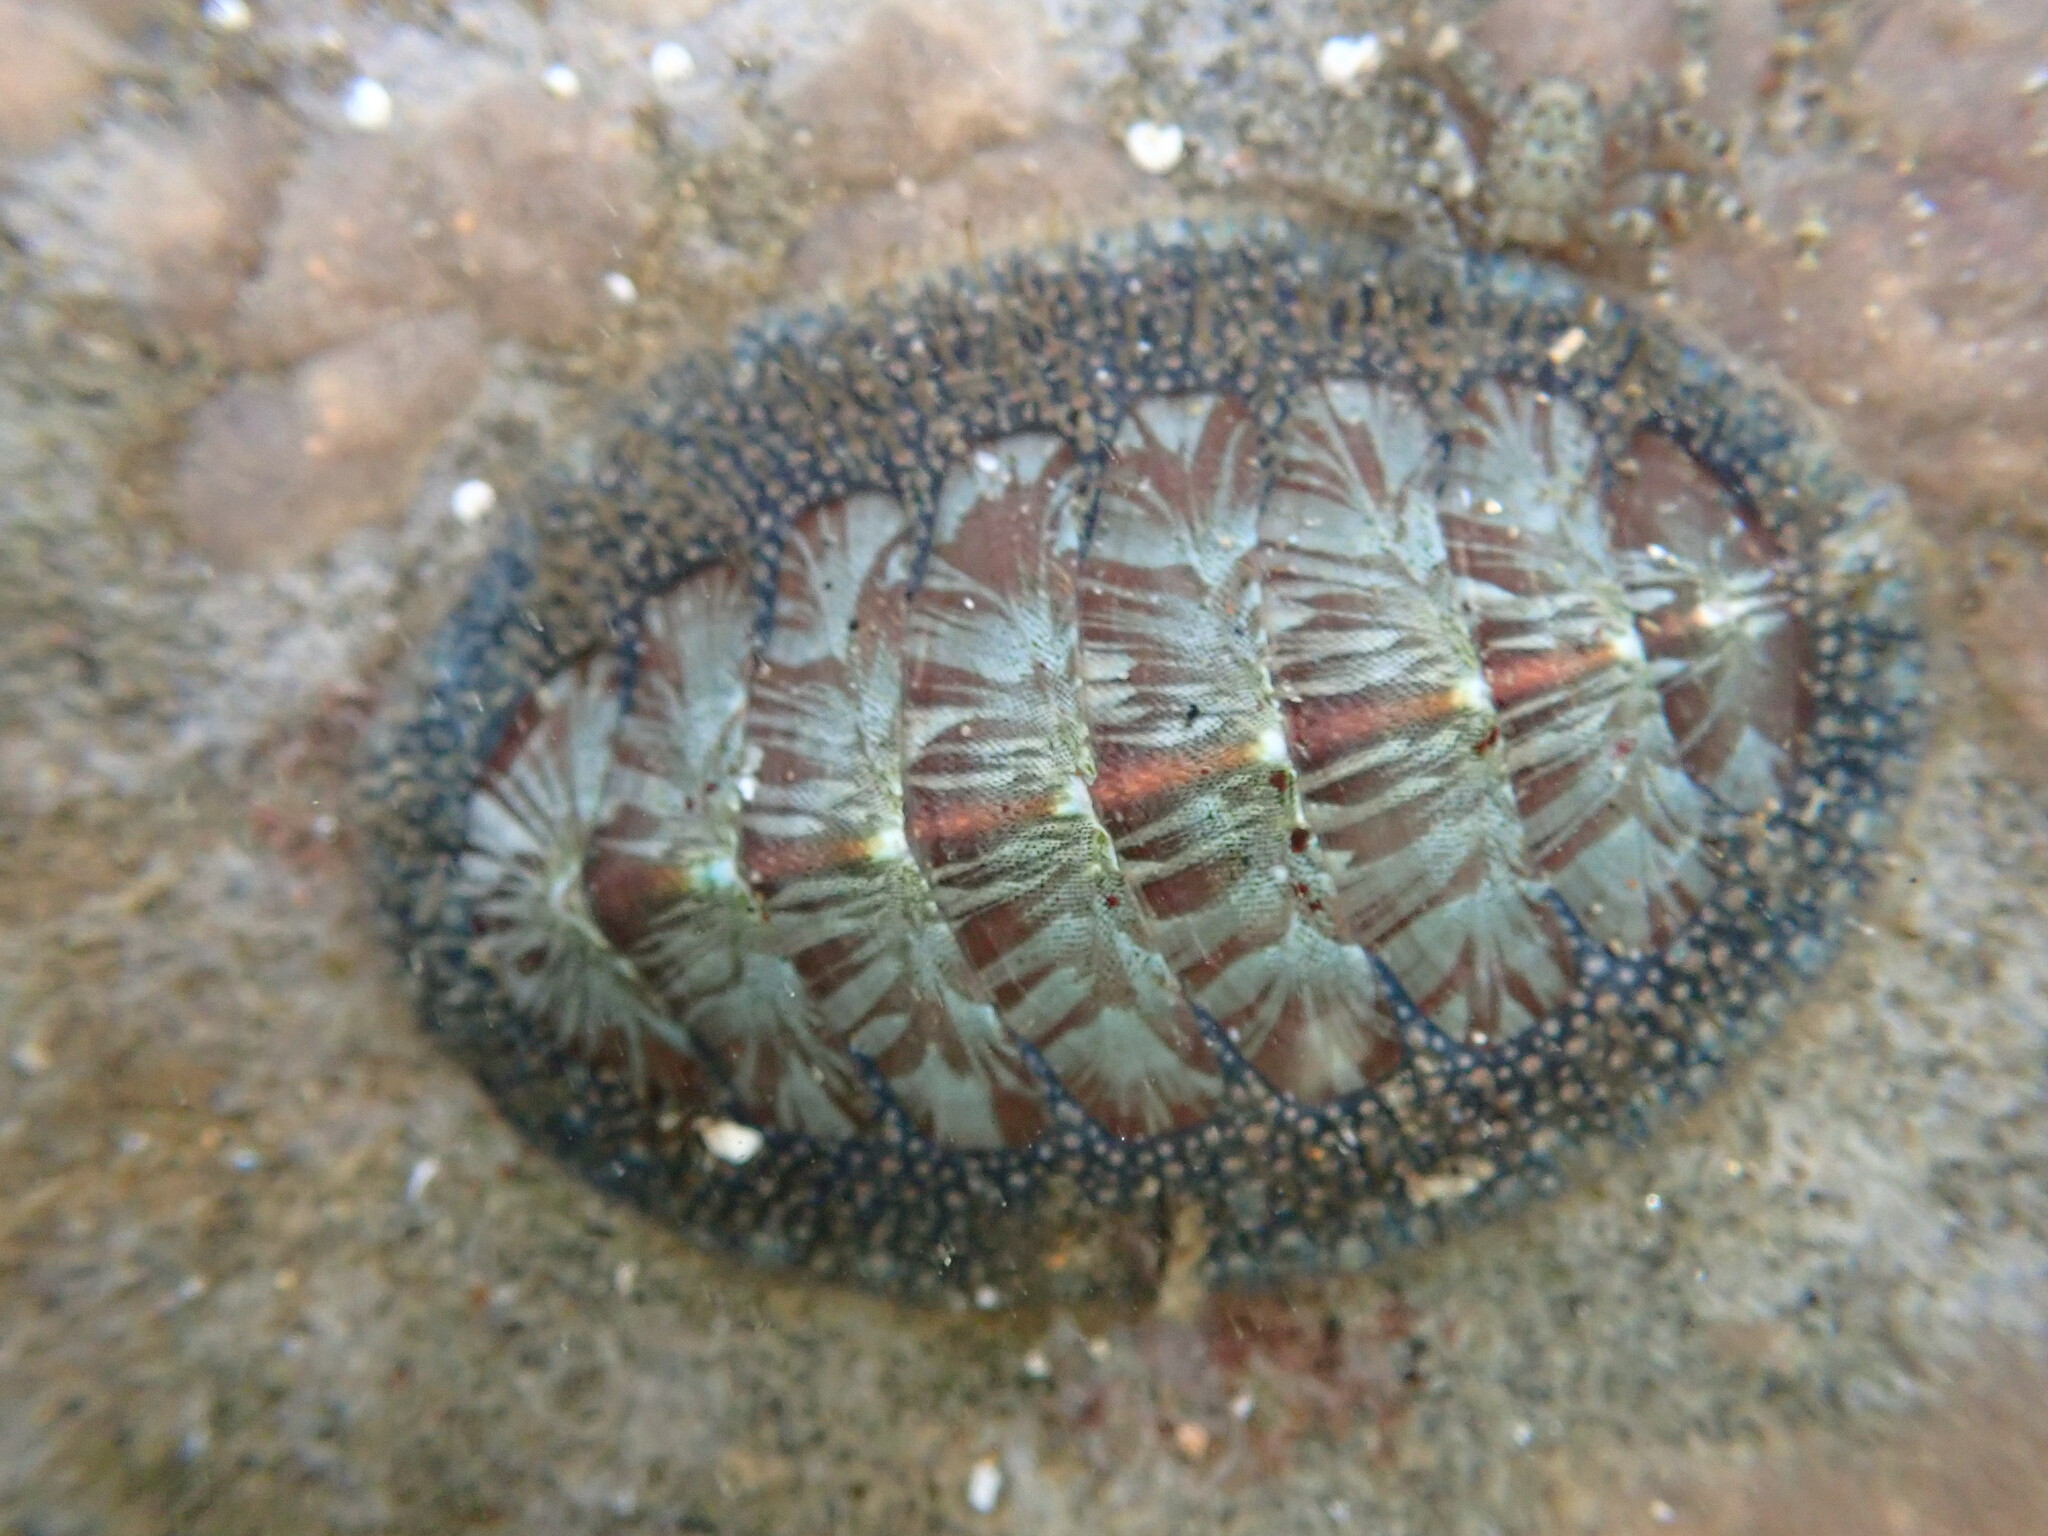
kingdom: Animalia
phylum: Mollusca
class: Polyplacophora
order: Chitonida
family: Mopaliidae
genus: Mopalia
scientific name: Mopalia lignosa
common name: Woody chiton
